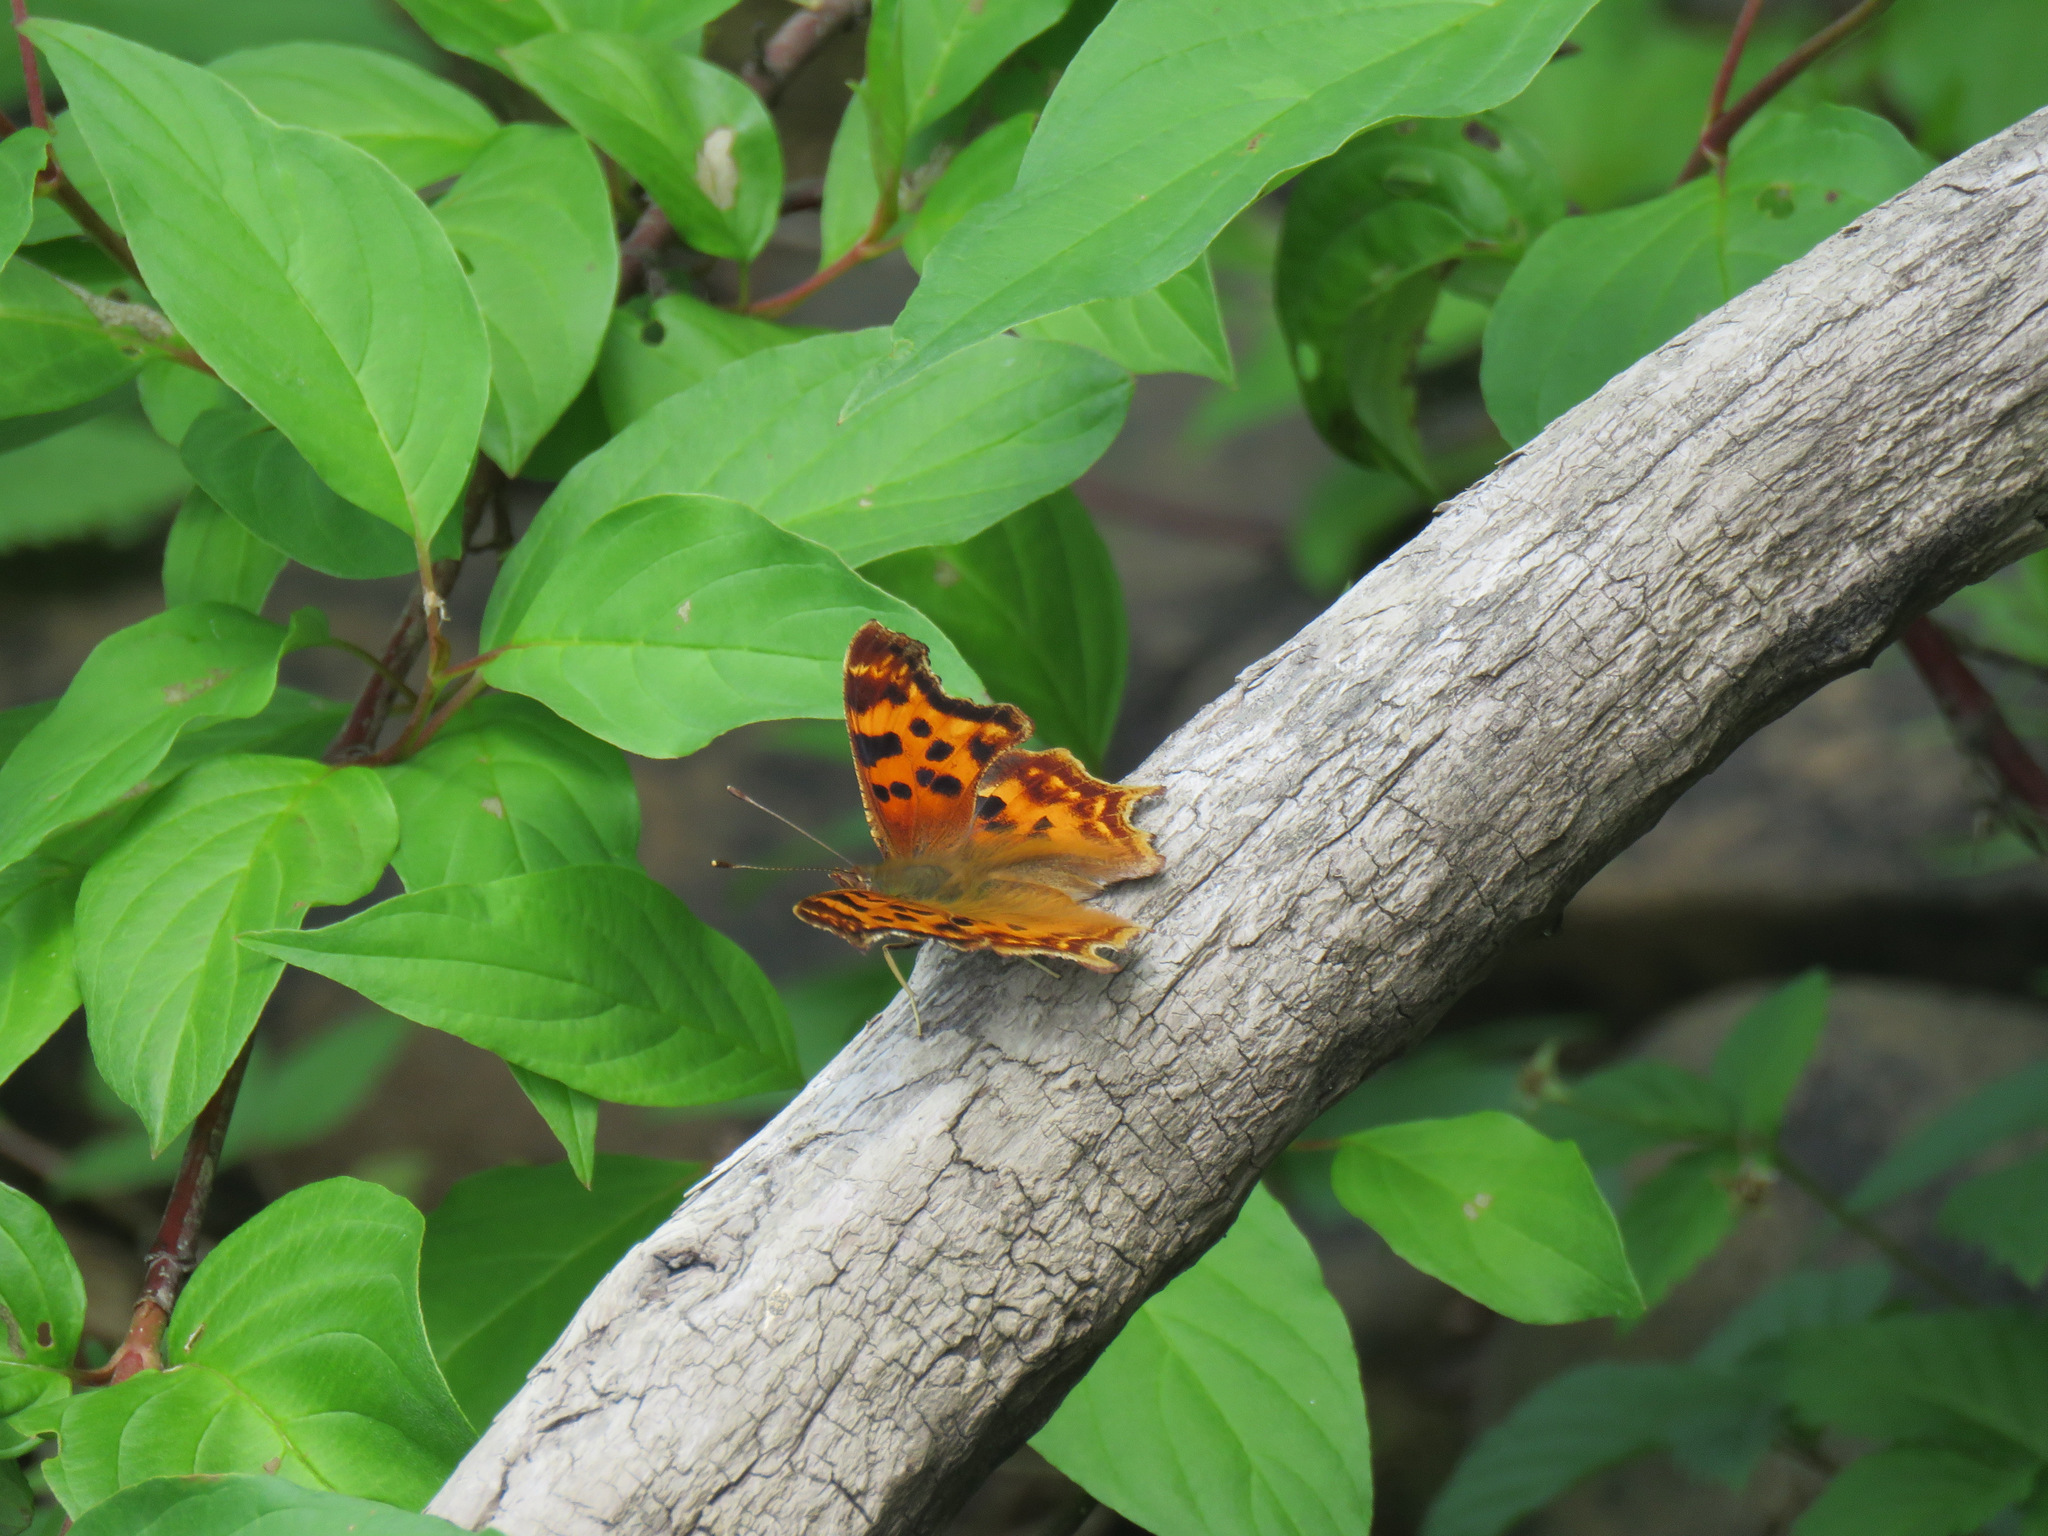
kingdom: Animalia
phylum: Arthropoda
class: Insecta
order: Lepidoptera
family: Nymphalidae
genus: Polygonia
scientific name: Polygonia satyrus
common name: Satyr angle wing
